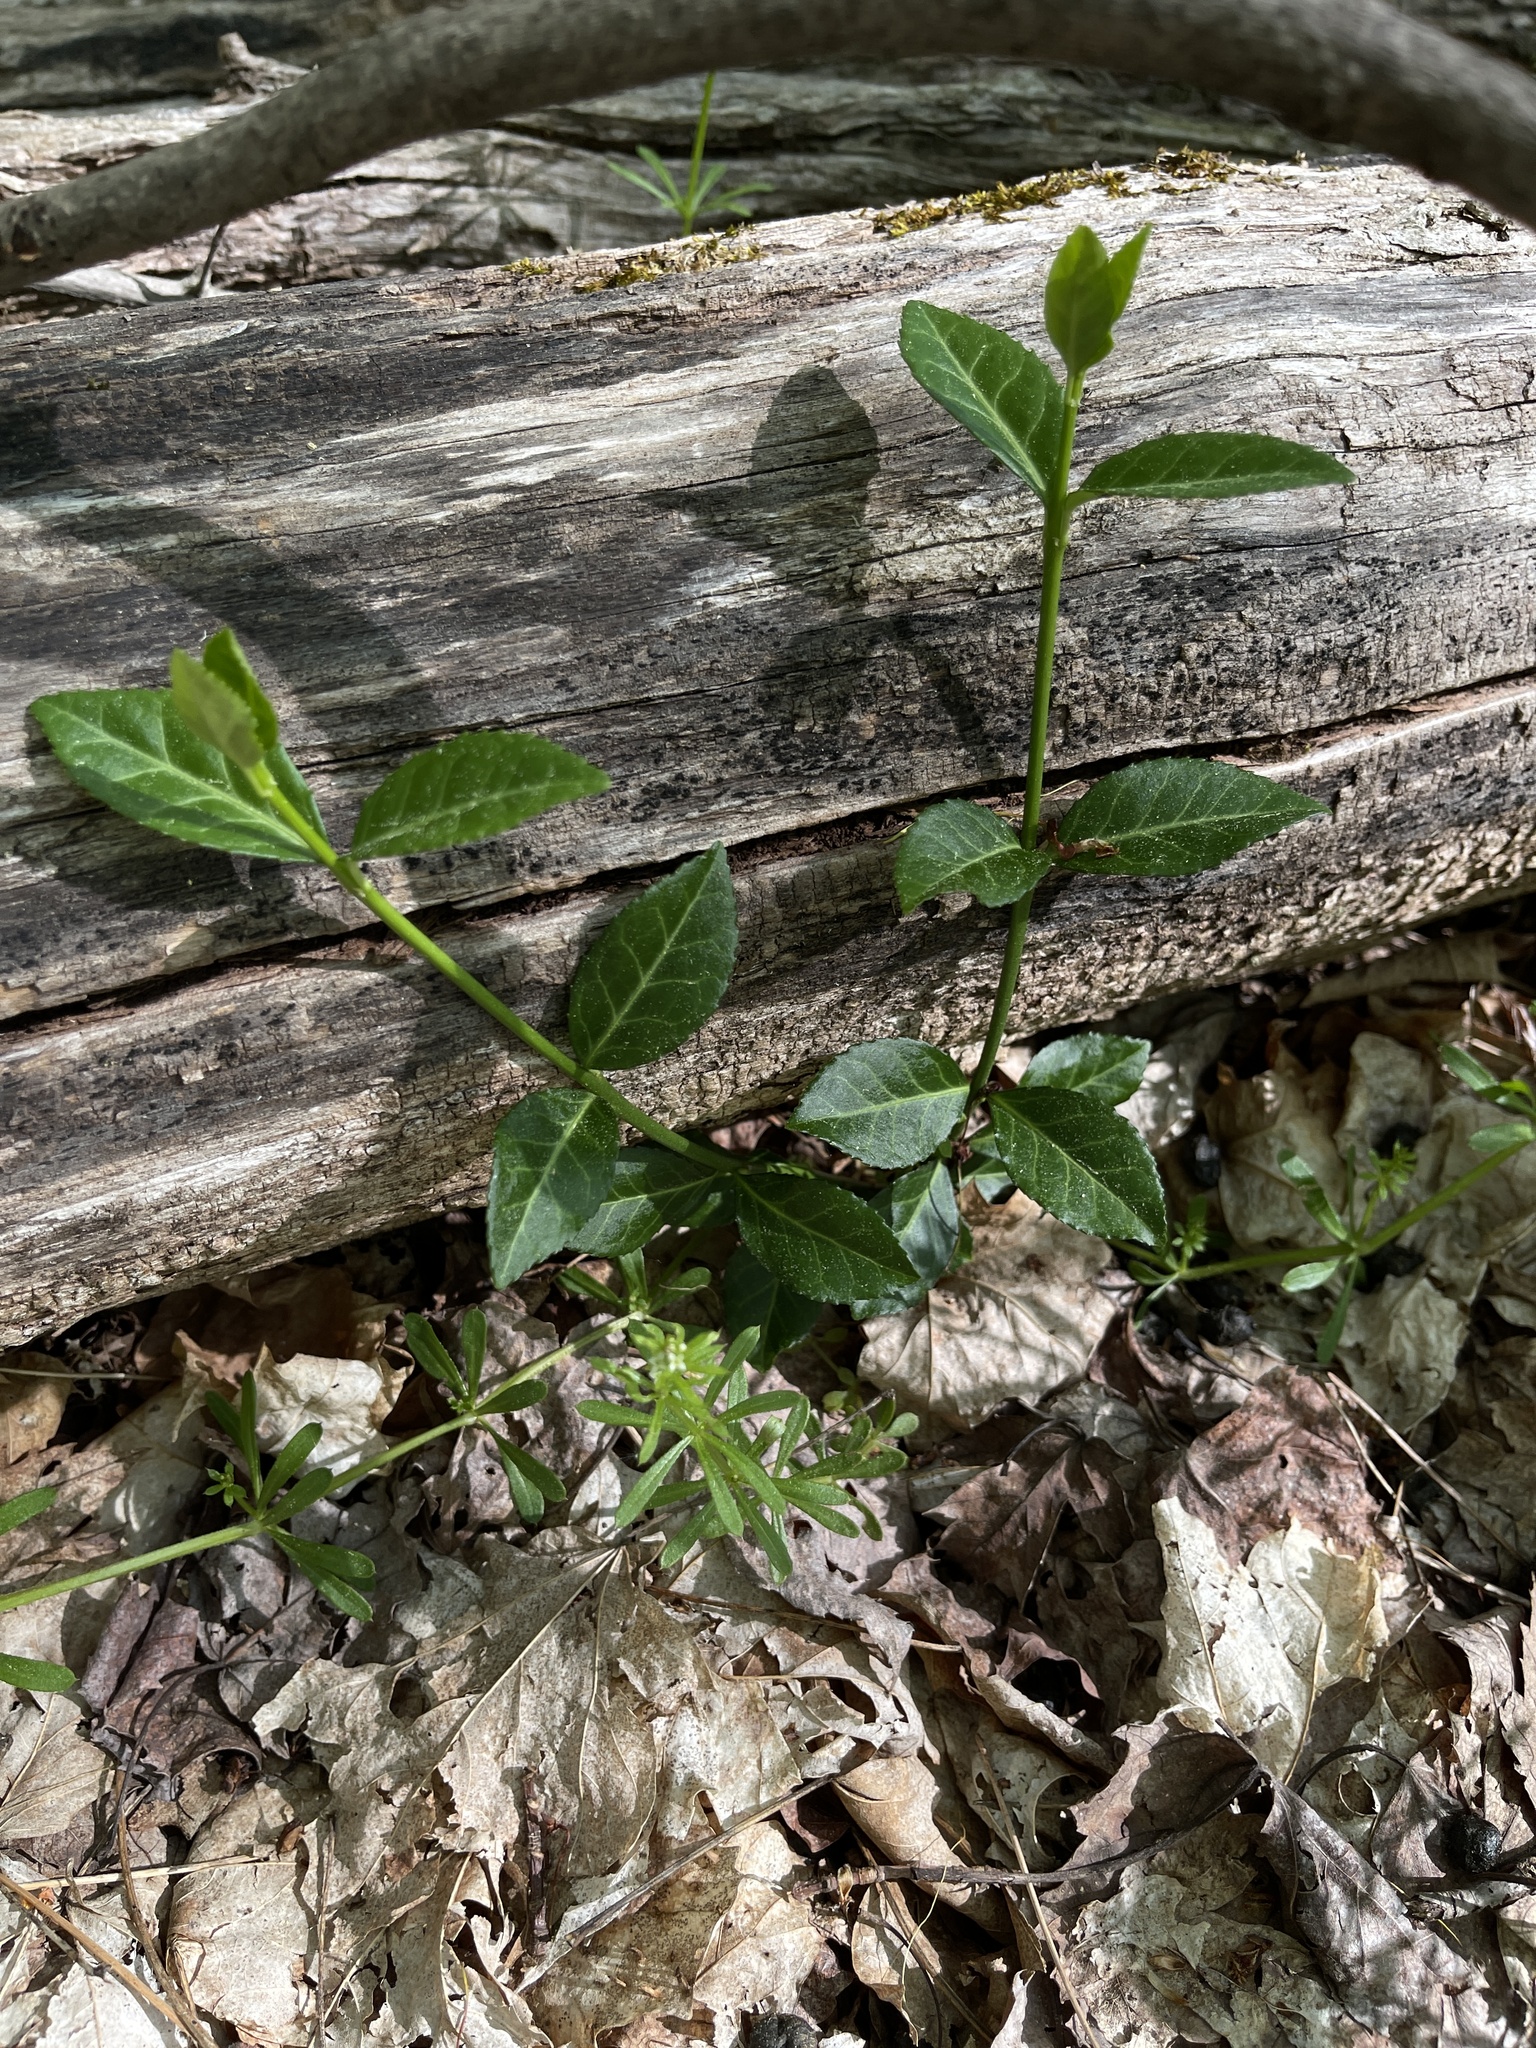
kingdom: Plantae
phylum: Tracheophyta
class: Magnoliopsida
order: Celastrales
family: Celastraceae
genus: Euonymus
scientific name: Euonymus fortunei
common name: Climbing euonymus
